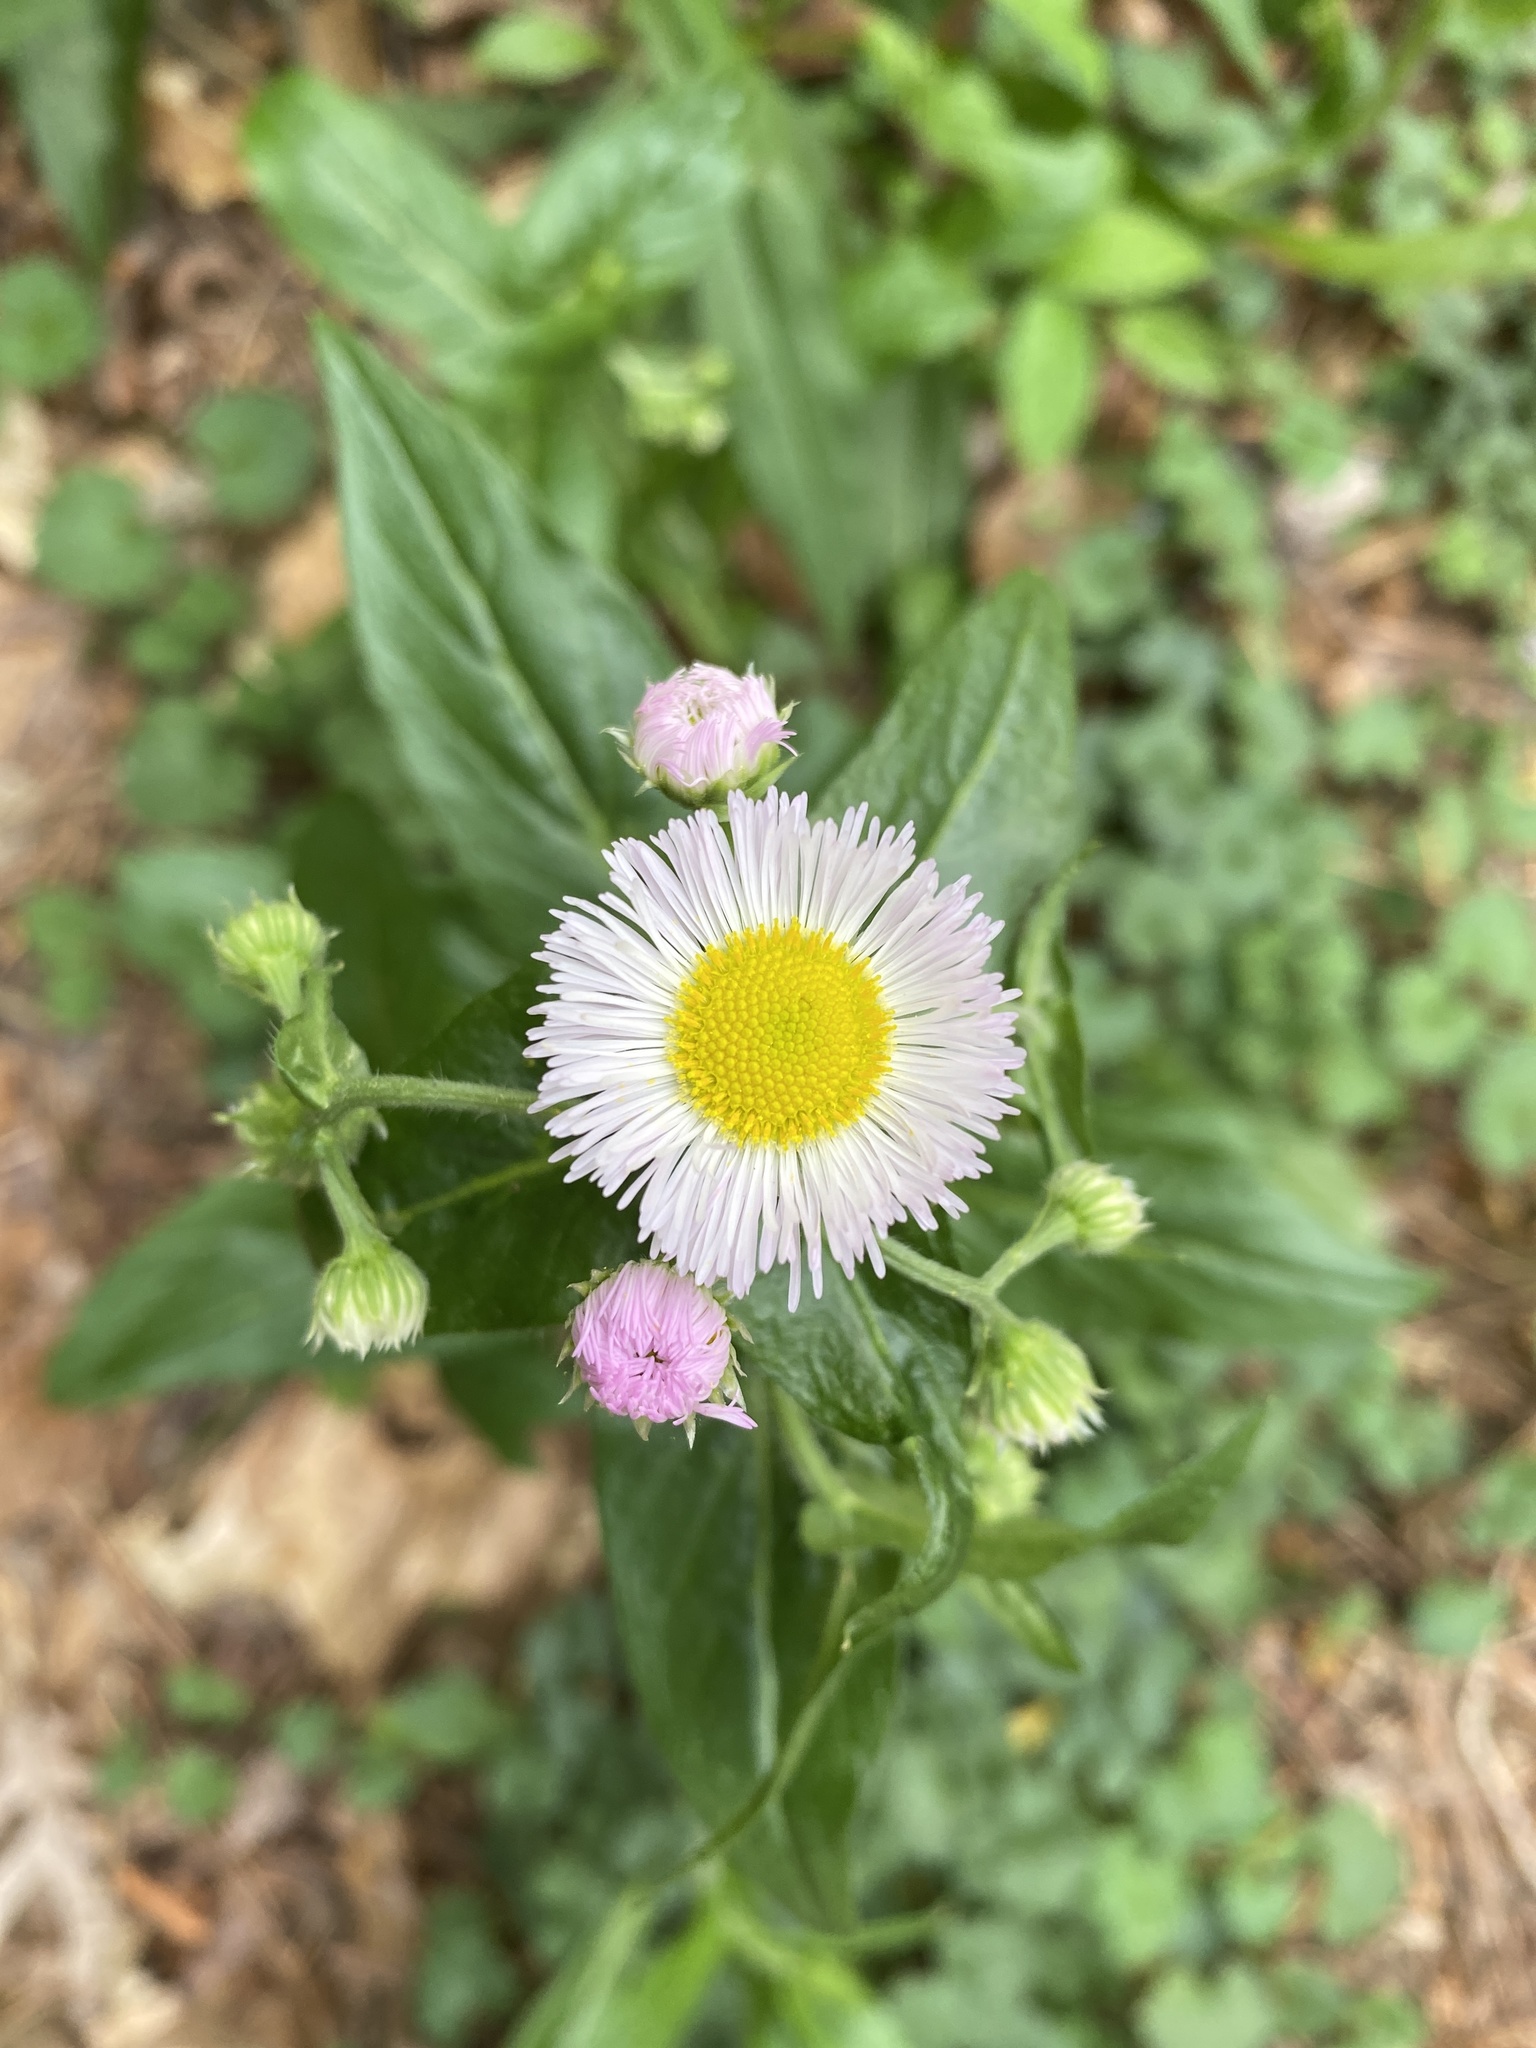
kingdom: Plantae
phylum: Tracheophyta
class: Magnoliopsida
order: Asterales
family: Asteraceae
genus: Erigeron
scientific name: Erigeron philadelphicus
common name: Robin's-plantain
